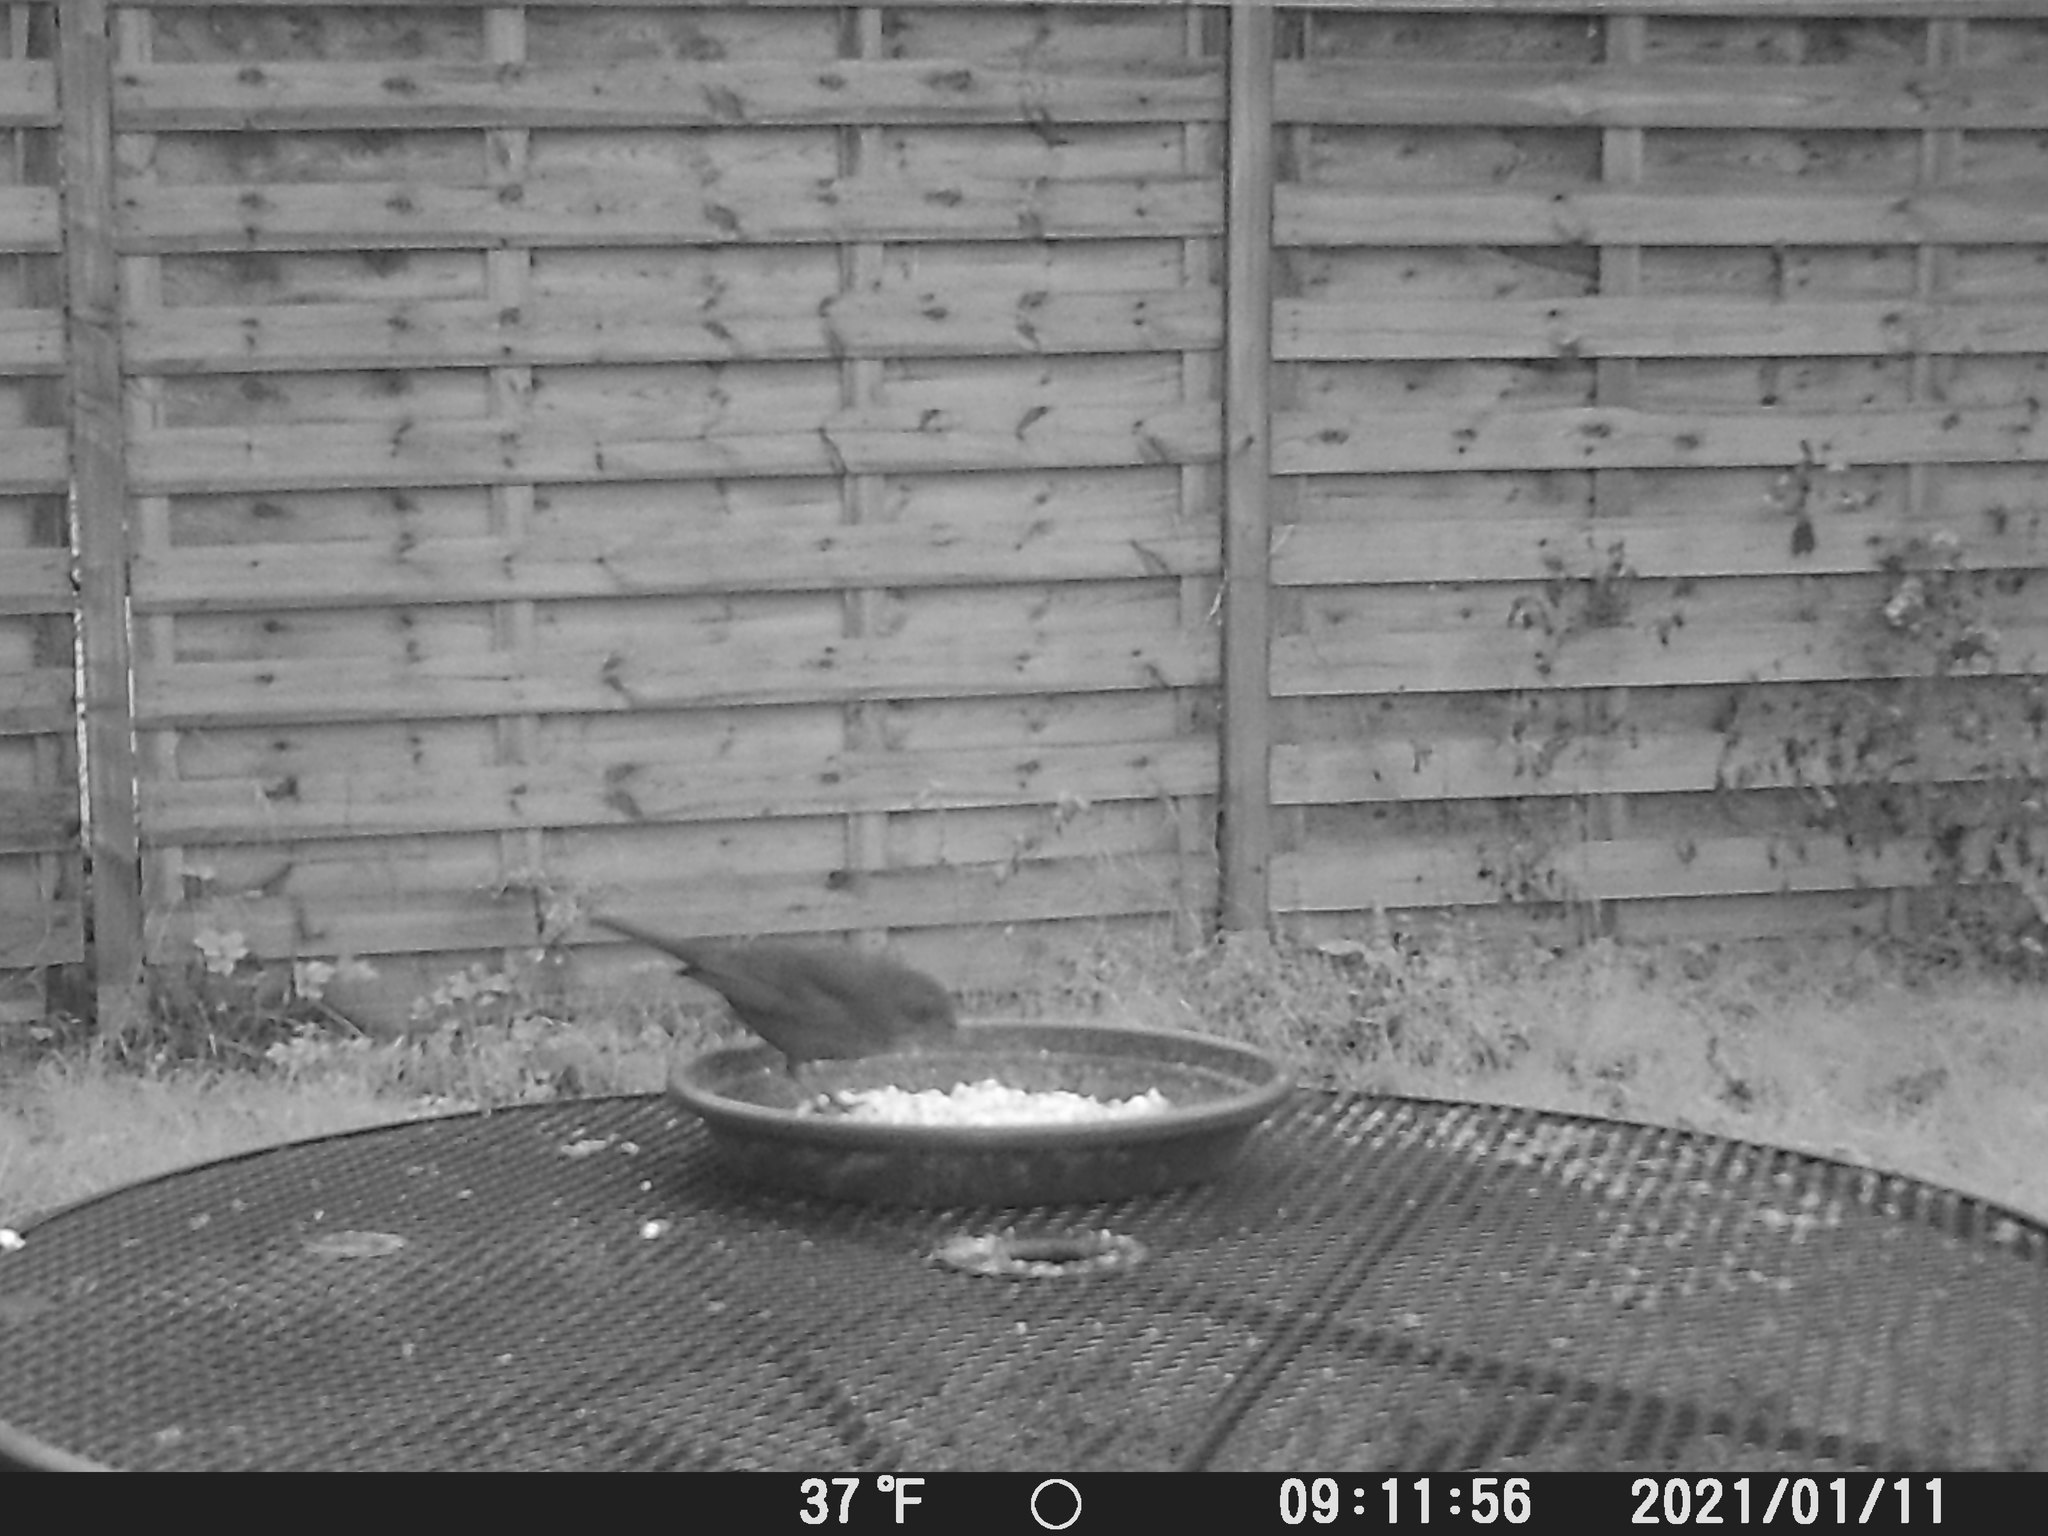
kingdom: Animalia
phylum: Chordata
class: Aves
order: Passeriformes
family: Turdidae
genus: Turdus
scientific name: Turdus merula
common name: Common blackbird
